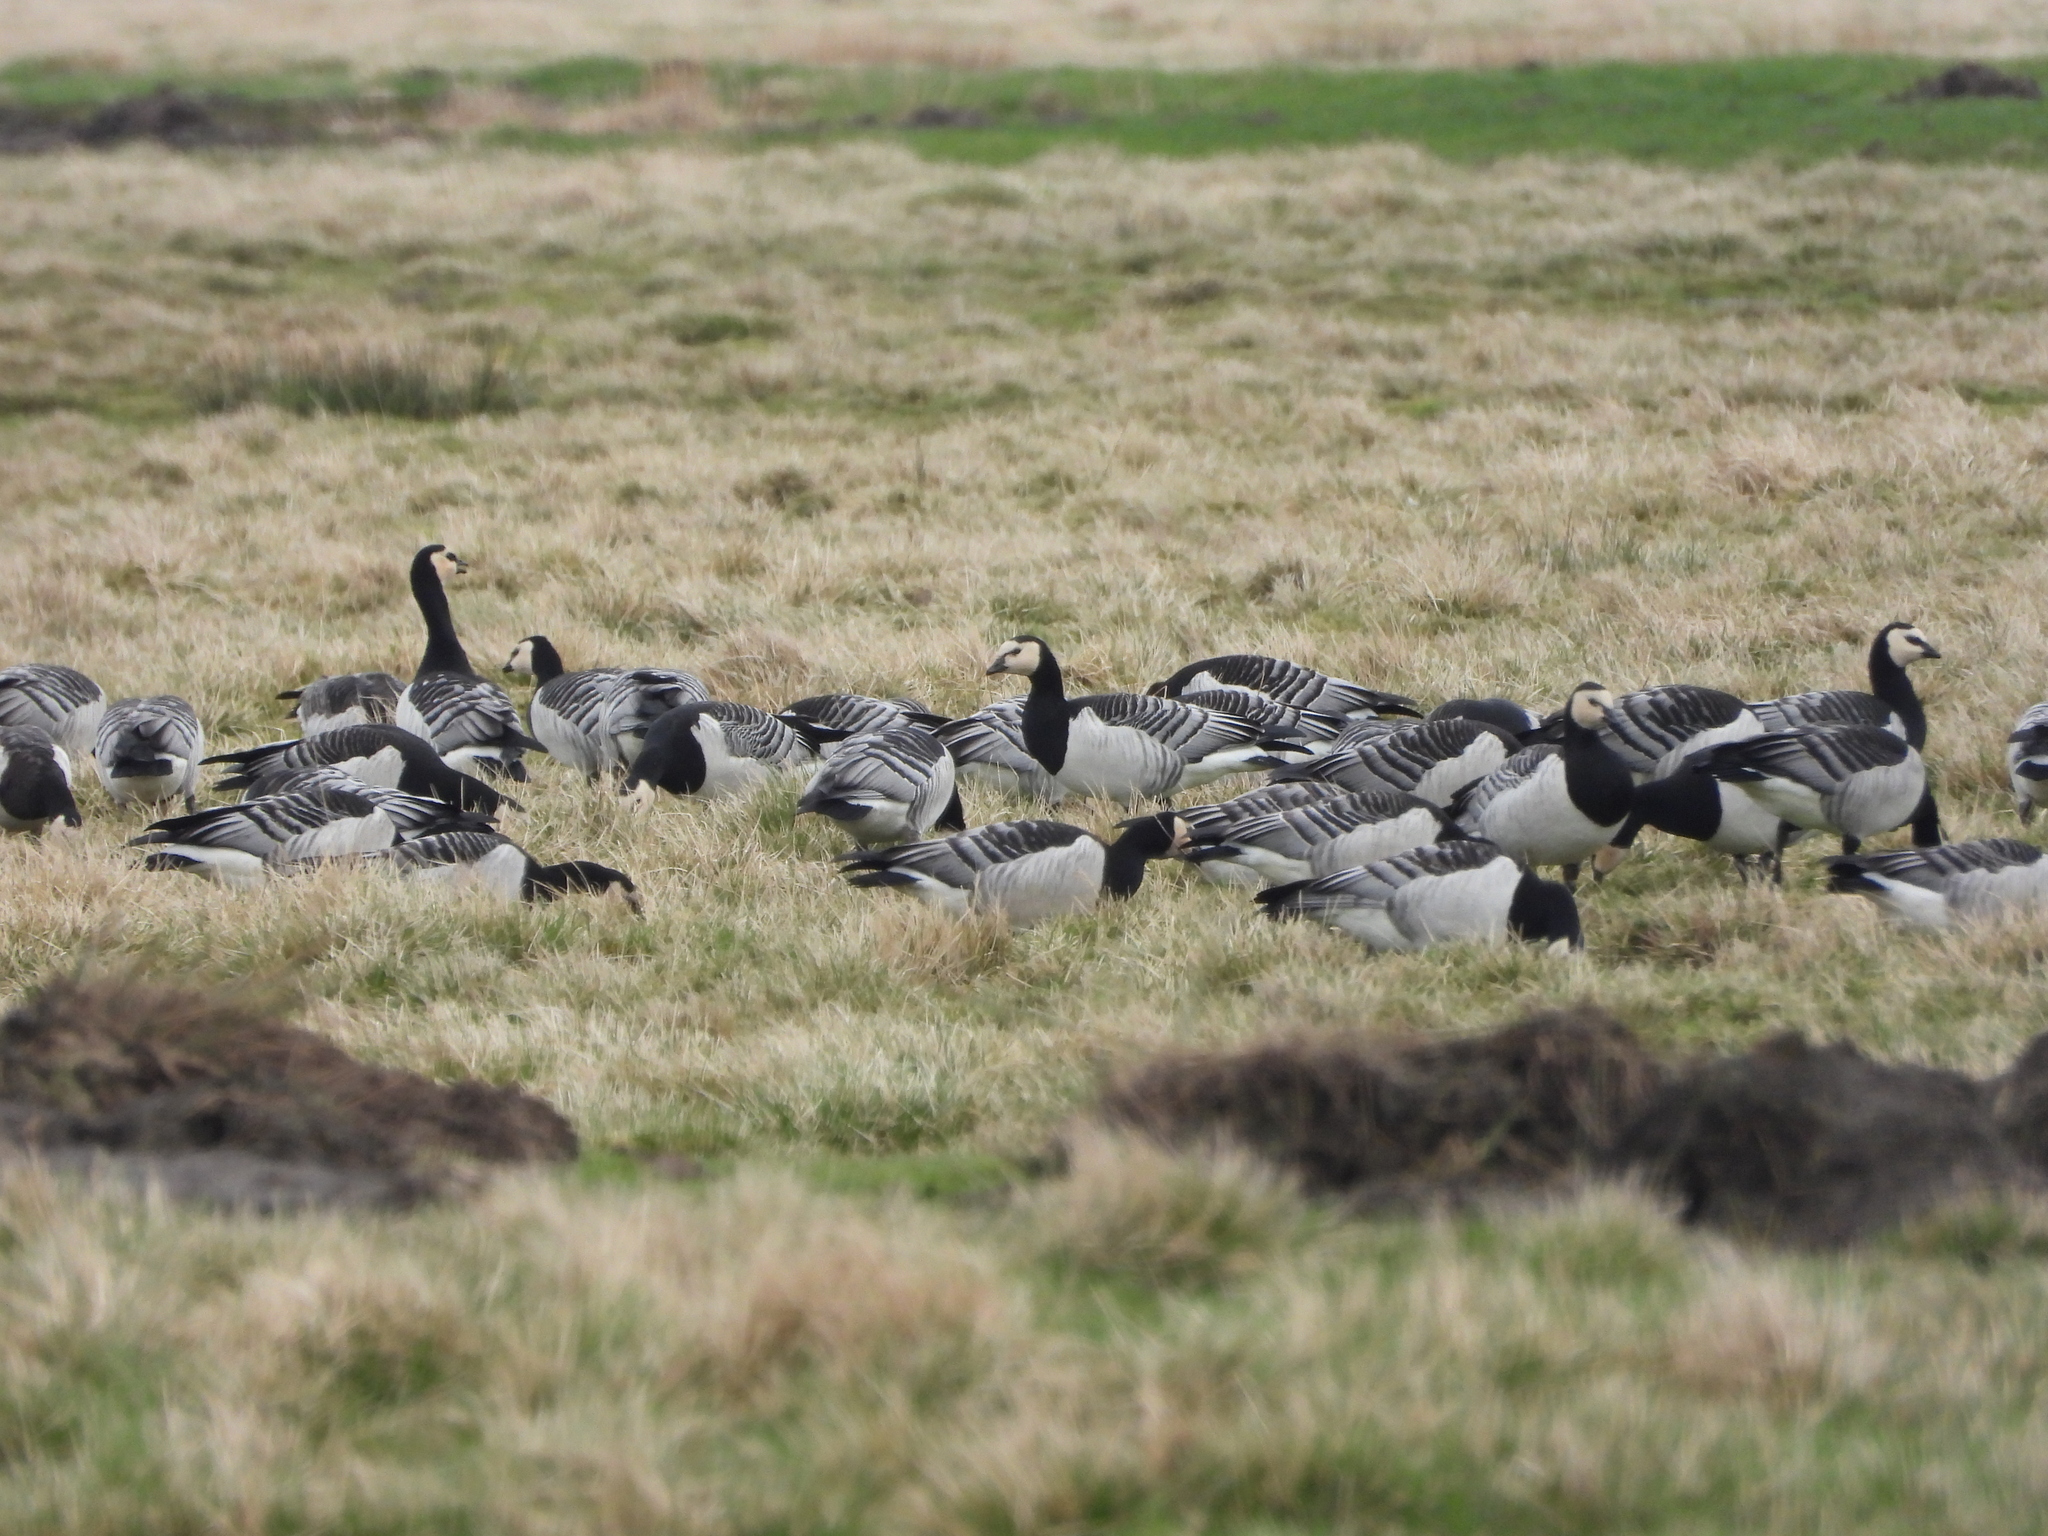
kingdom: Animalia
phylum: Chordata
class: Aves
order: Anseriformes
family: Anatidae
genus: Branta
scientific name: Branta leucopsis
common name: Barnacle goose
